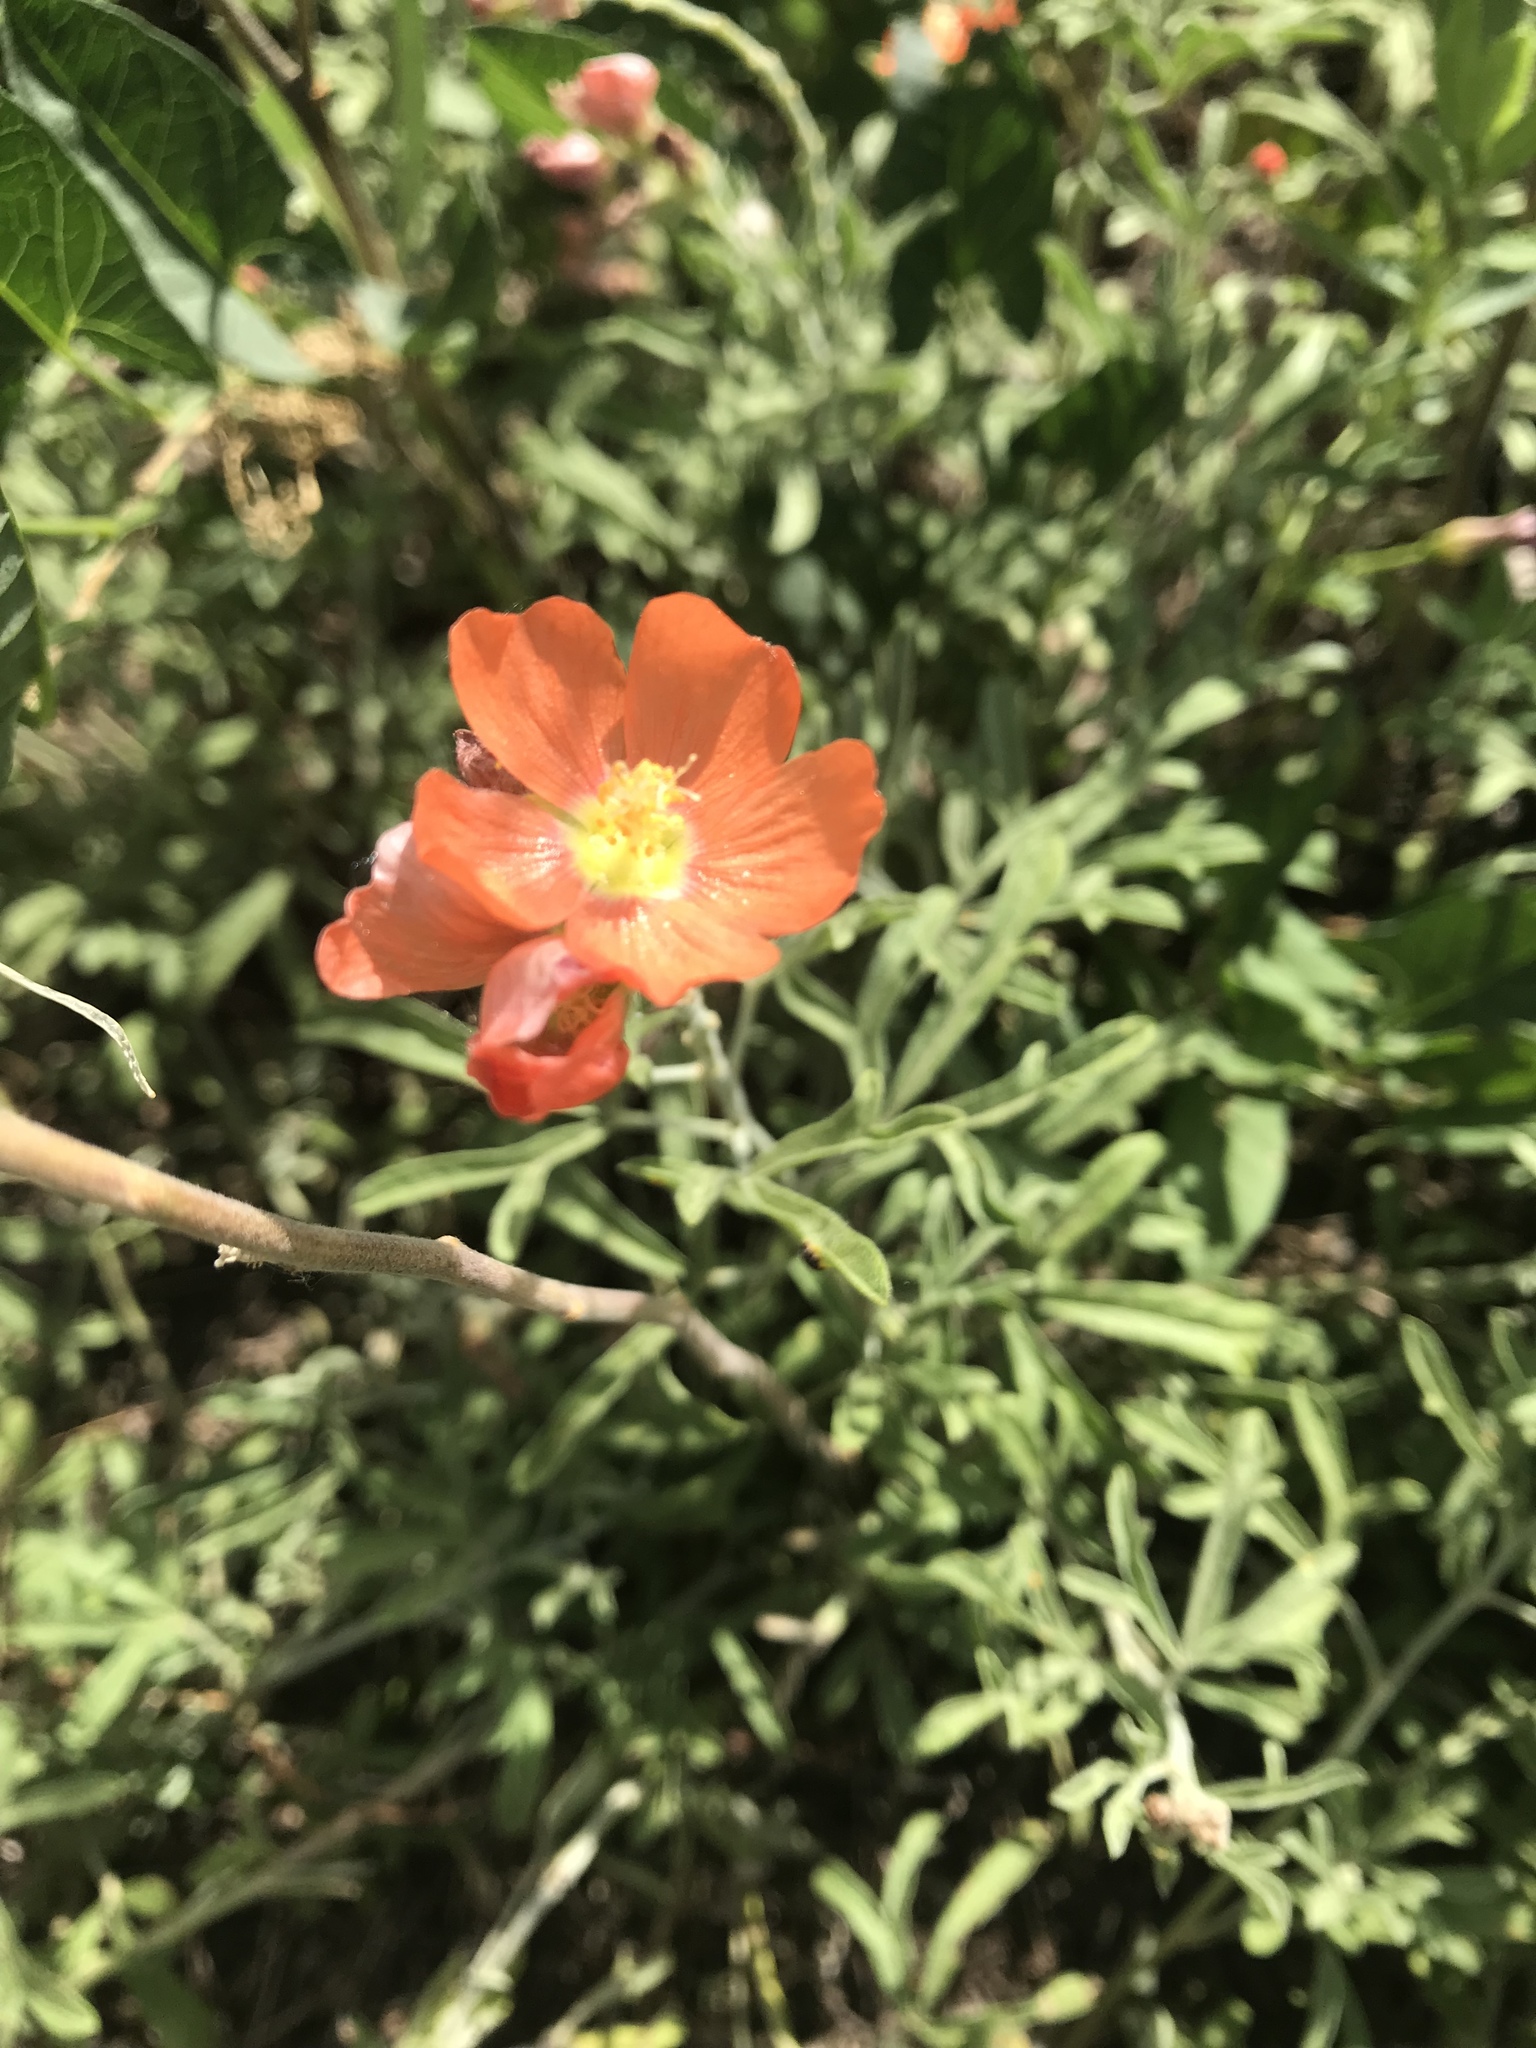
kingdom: Plantae
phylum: Tracheophyta
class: Magnoliopsida
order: Malvales
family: Malvaceae
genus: Sphaeralcea
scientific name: Sphaeralcea coccinea
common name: Moss-rose
